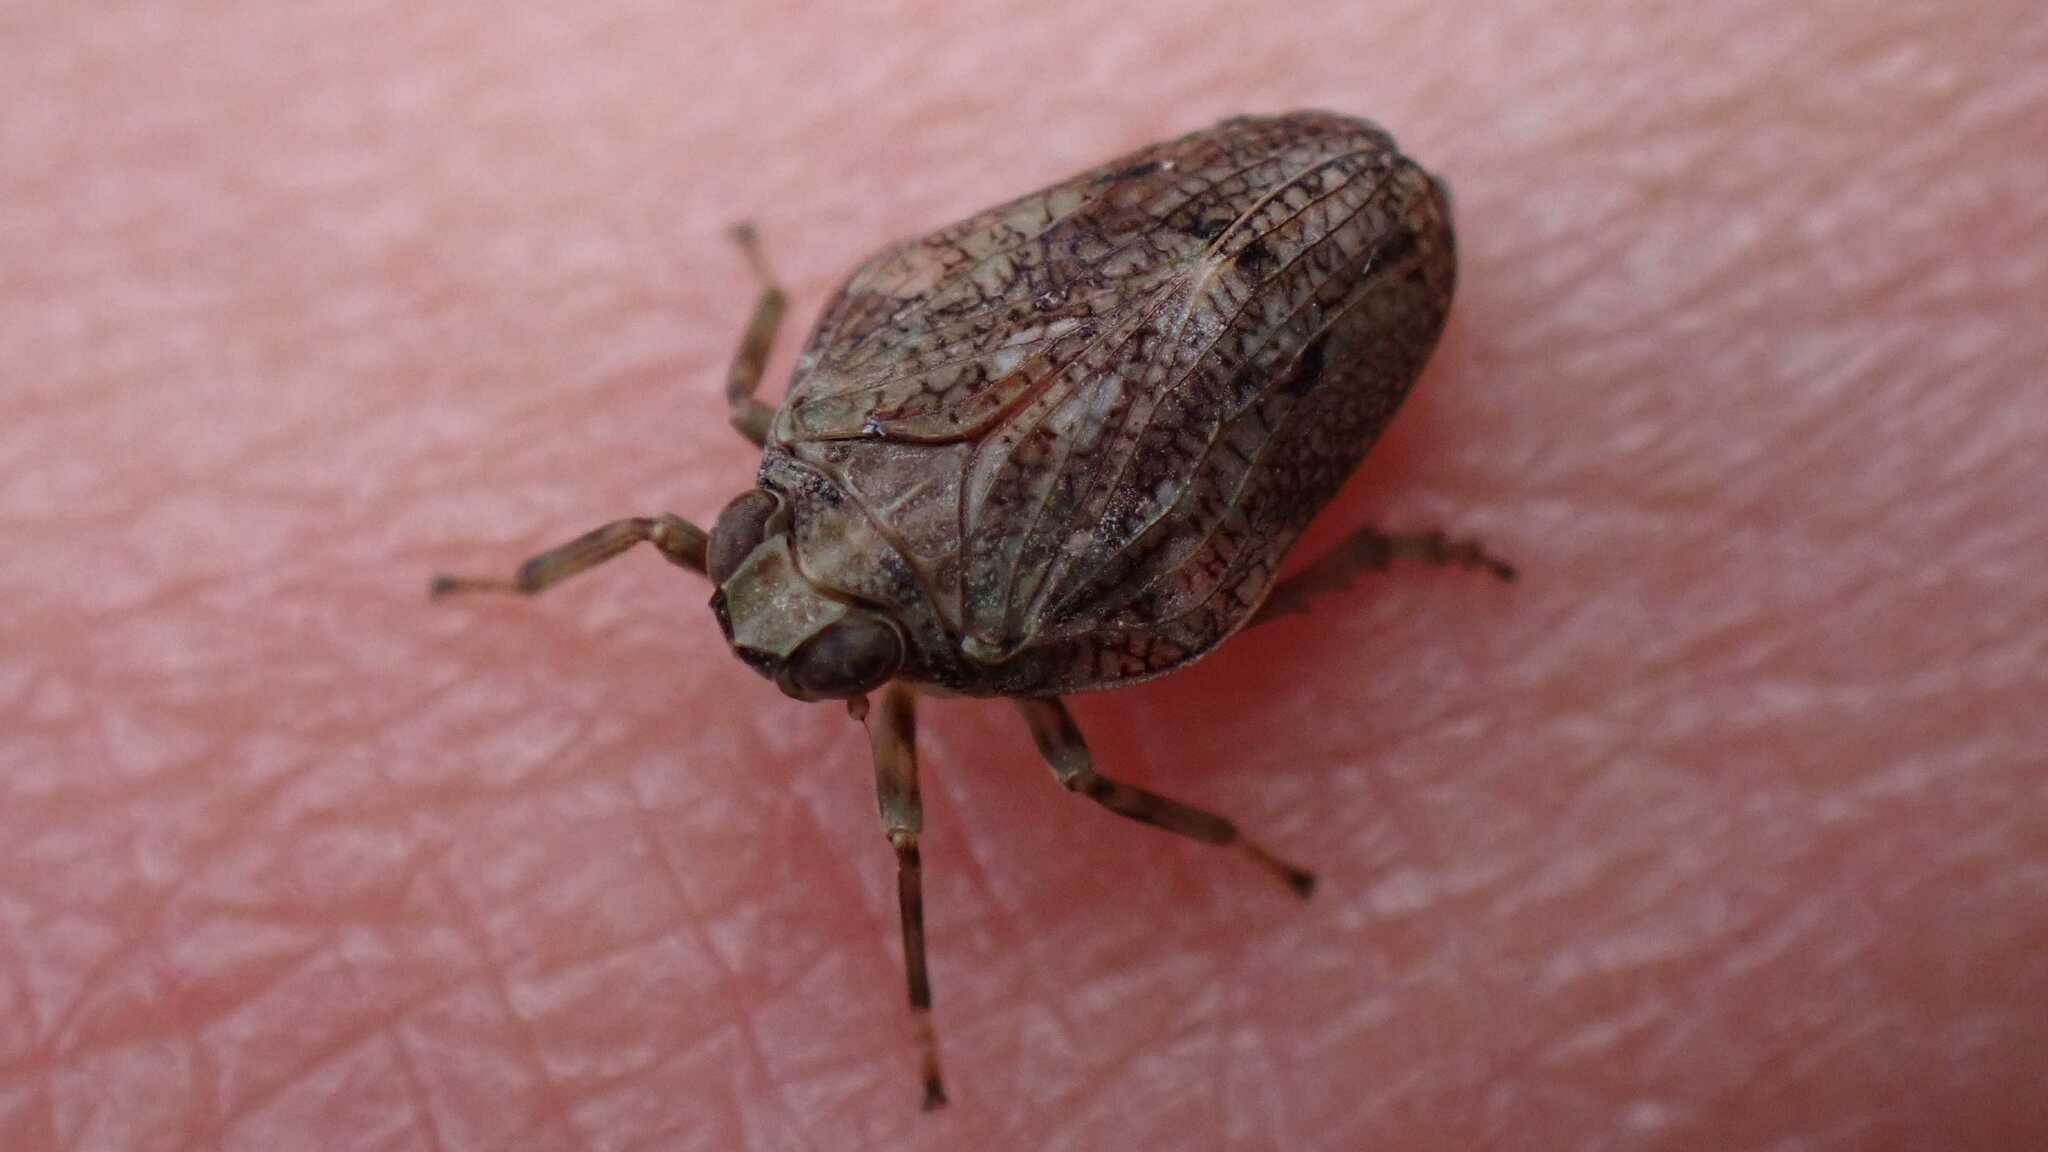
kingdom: Animalia
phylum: Arthropoda
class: Insecta
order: Hemiptera
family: Issidae
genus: Issus
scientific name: Issus coleoptratus
